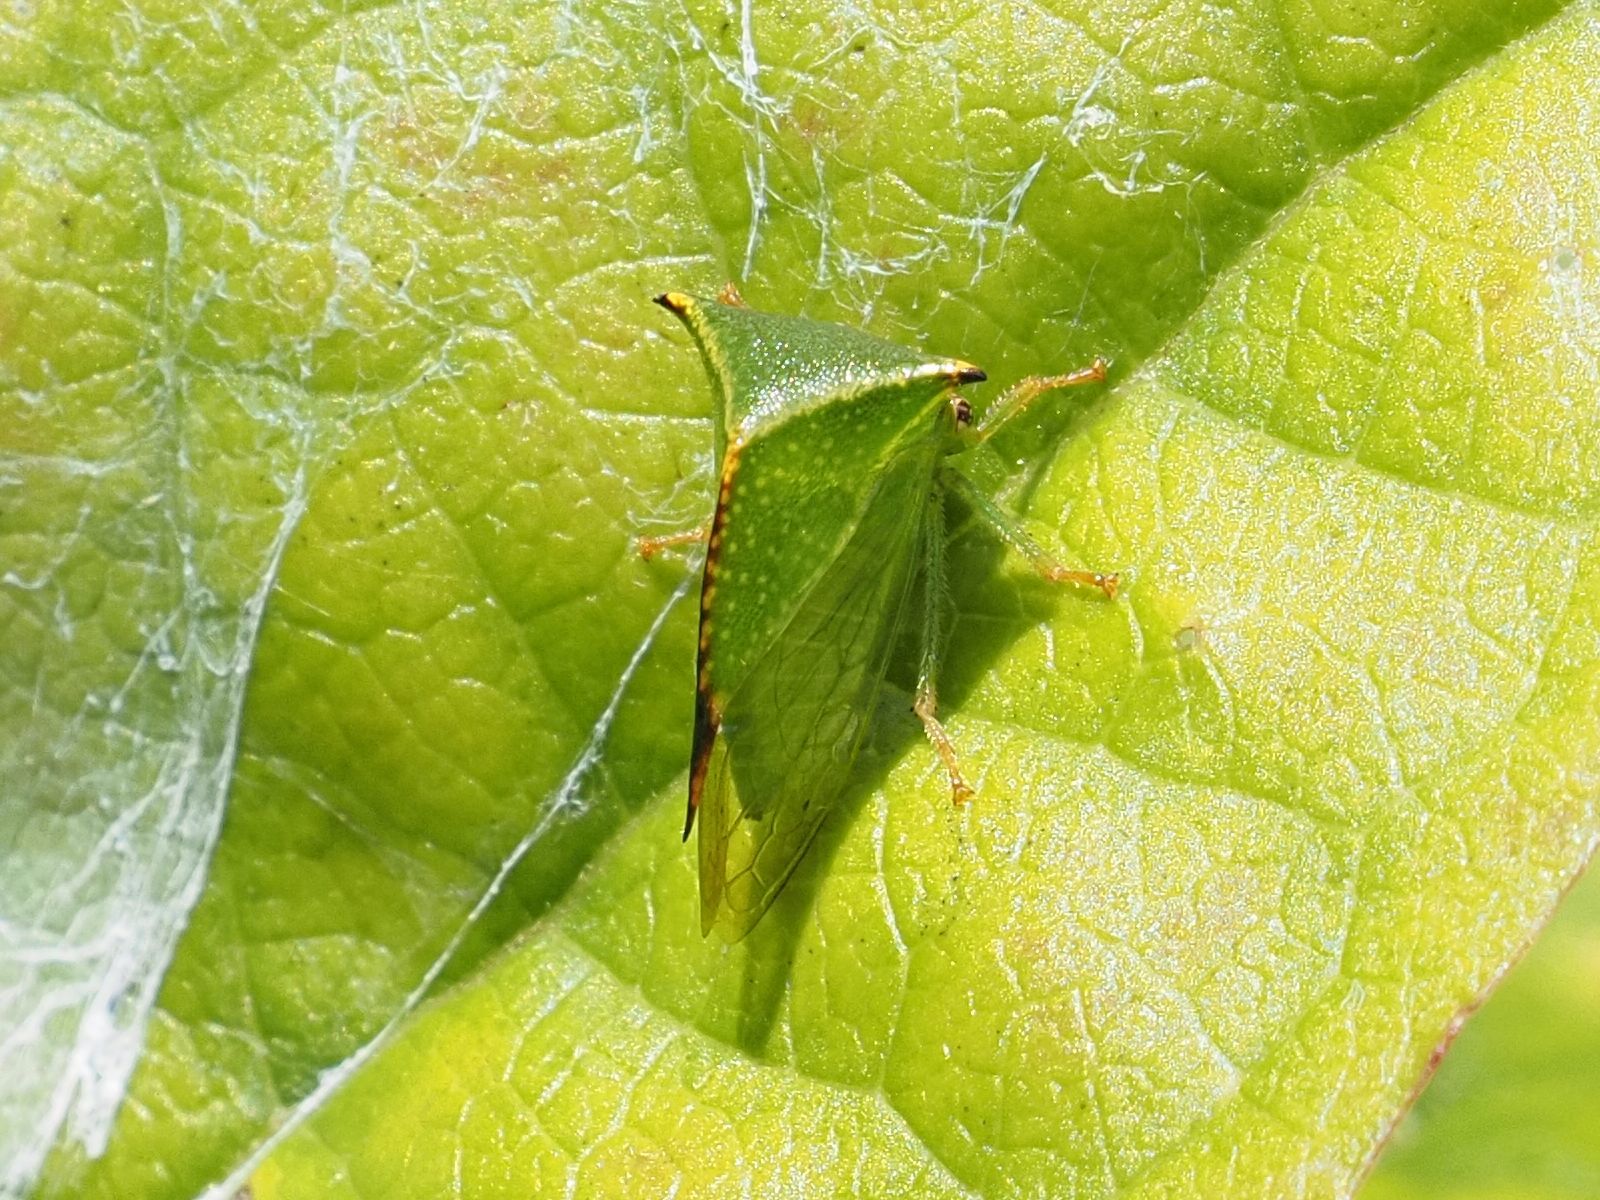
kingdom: Animalia
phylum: Arthropoda
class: Insecta
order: Hemiptera
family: Membracidae
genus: Stictocephala
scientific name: Stictocephala bisonia
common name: American buffalo treehopper
